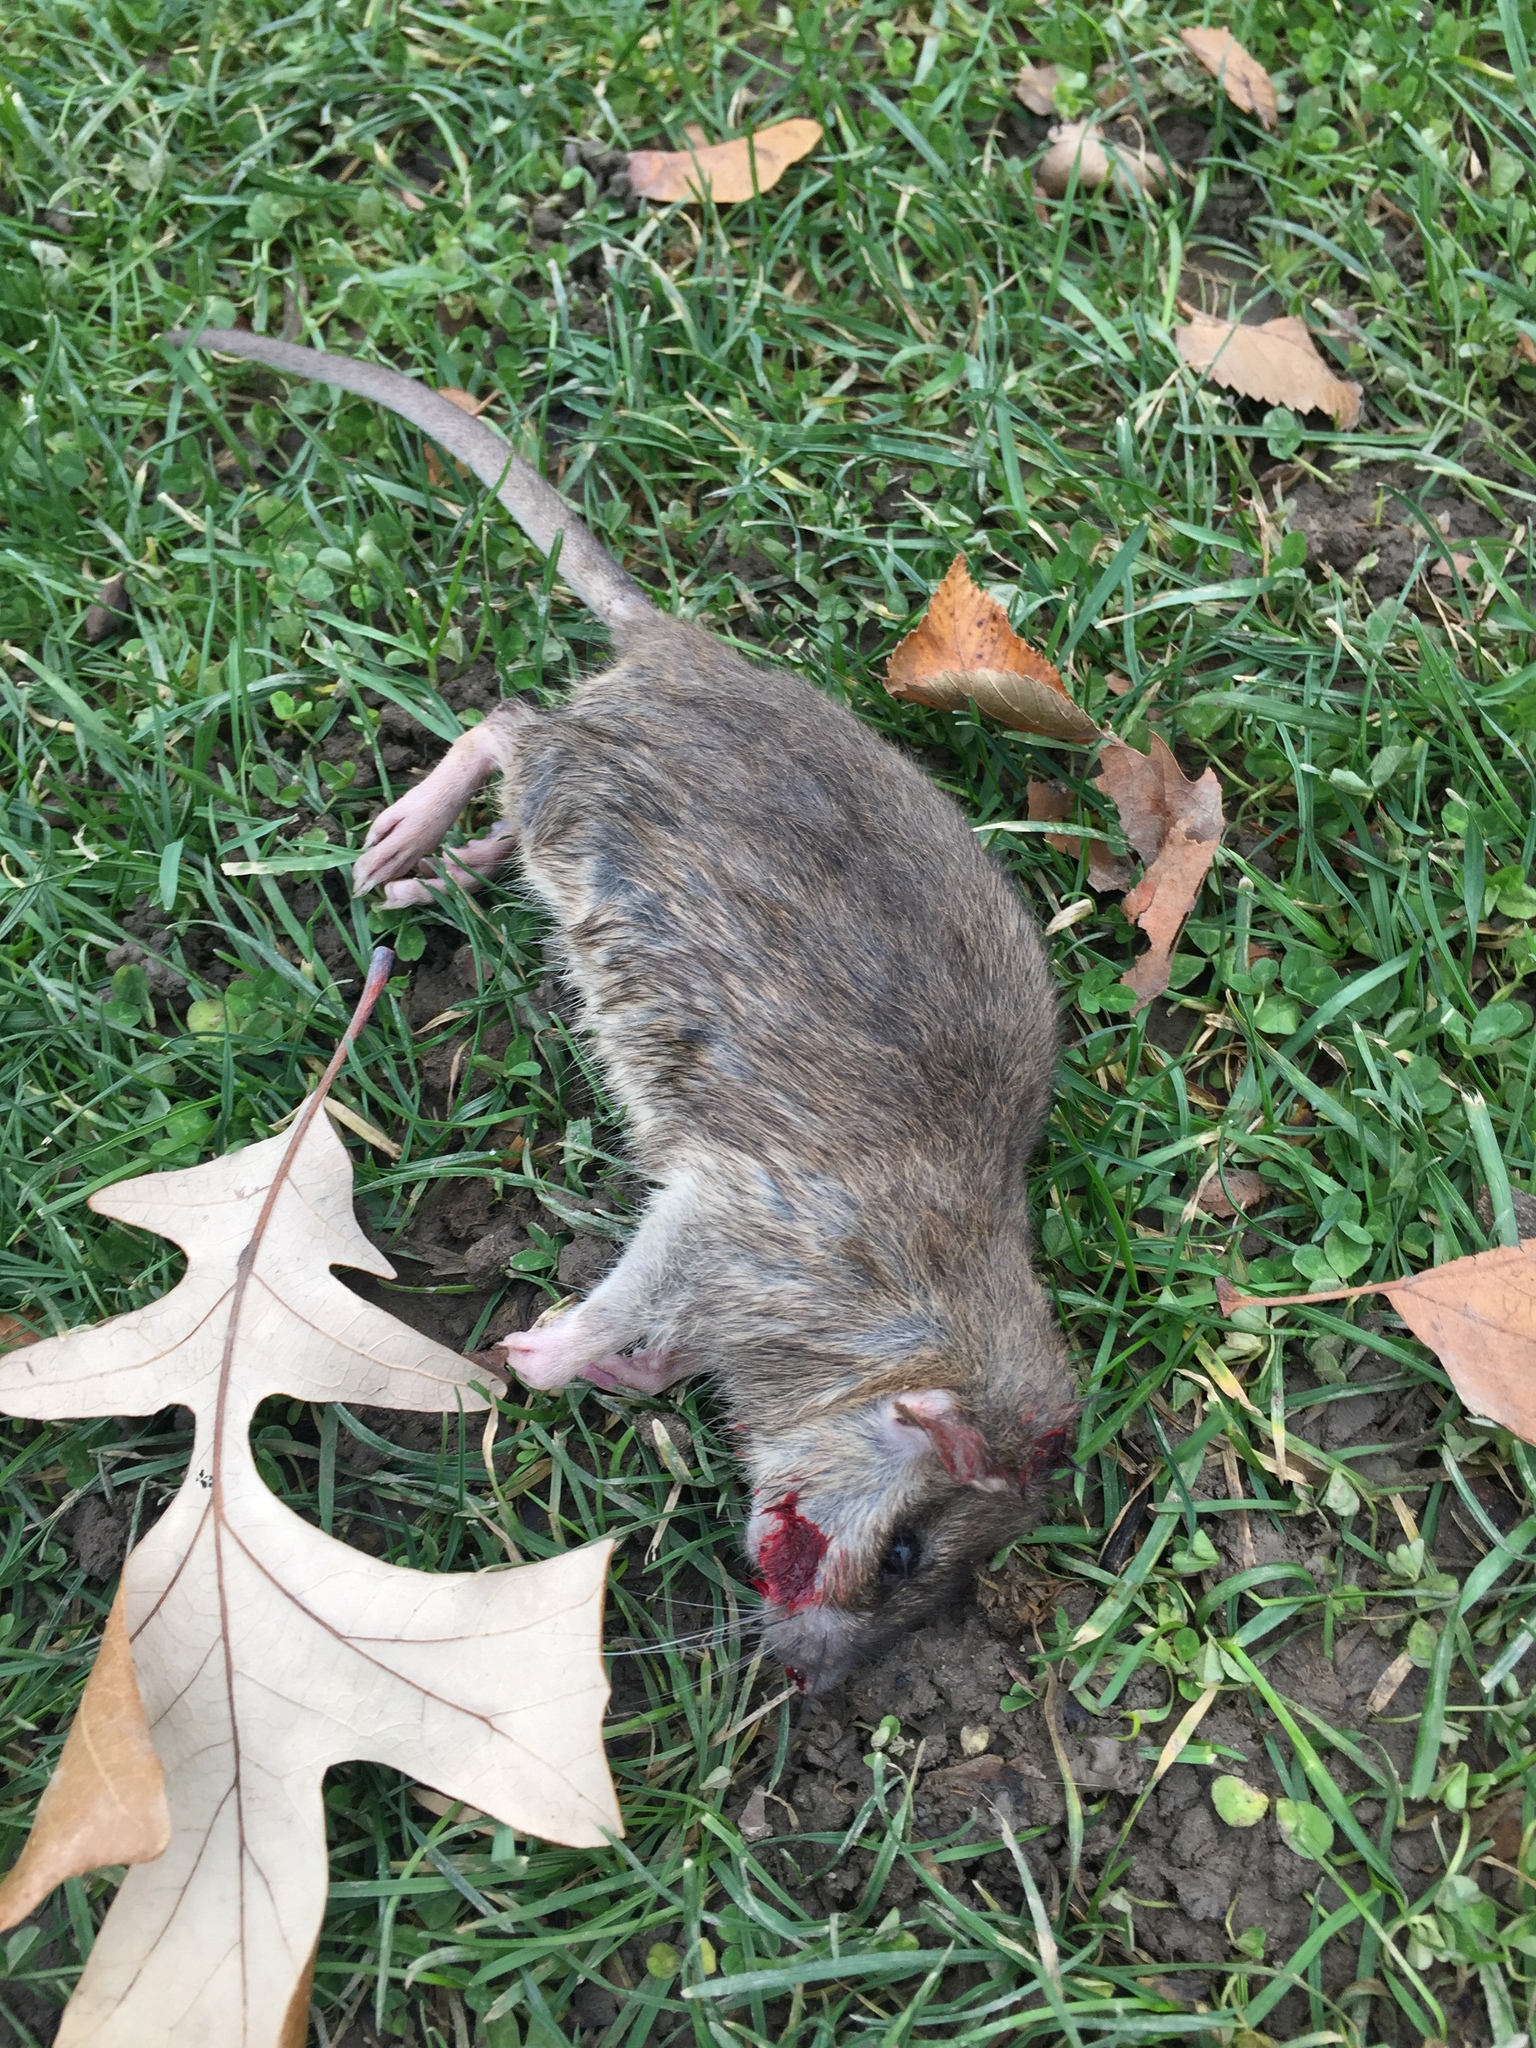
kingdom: Animalia
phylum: Chordata
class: Mammalia
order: Rodentia
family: Muridae
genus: Rattus
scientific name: Rattus norvegicus
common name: Brown rat
